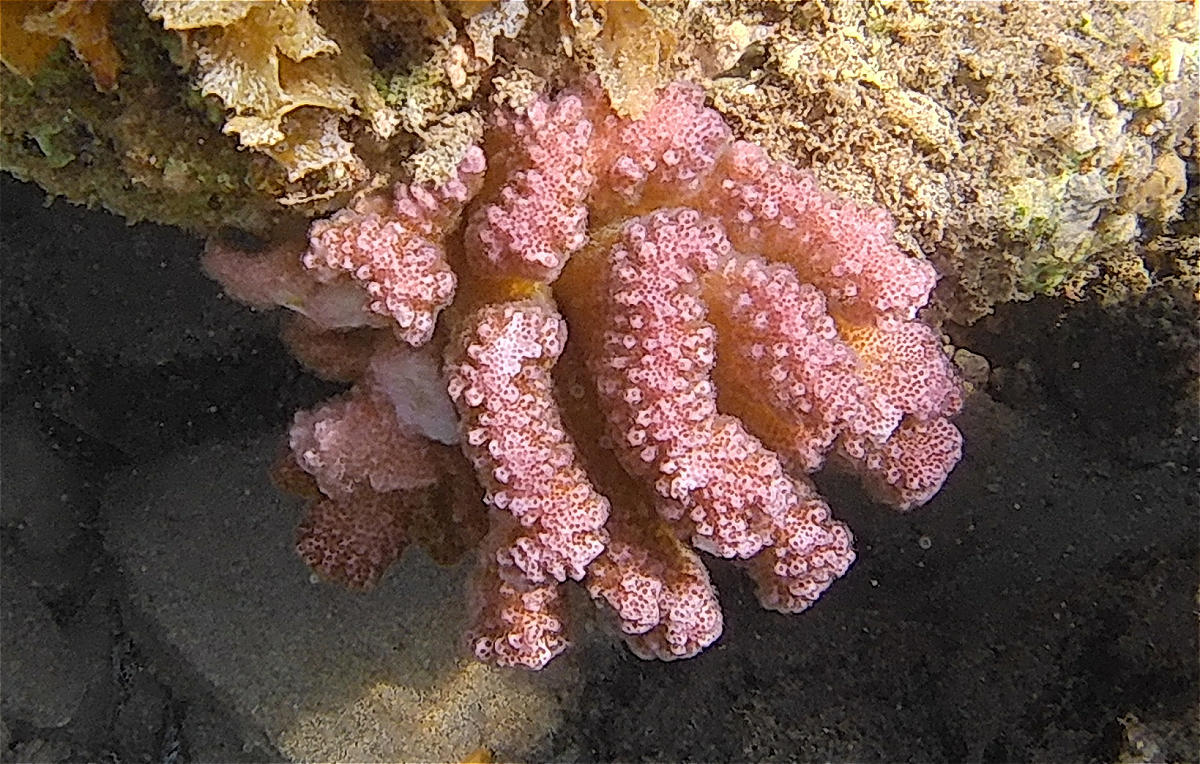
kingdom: Animalia
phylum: Cnidaria
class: Anthozoa
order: Scleractinia
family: Pocilloporidae
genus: Pocillopora
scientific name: Pocillopora verrucosa
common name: Cauliflower coral
